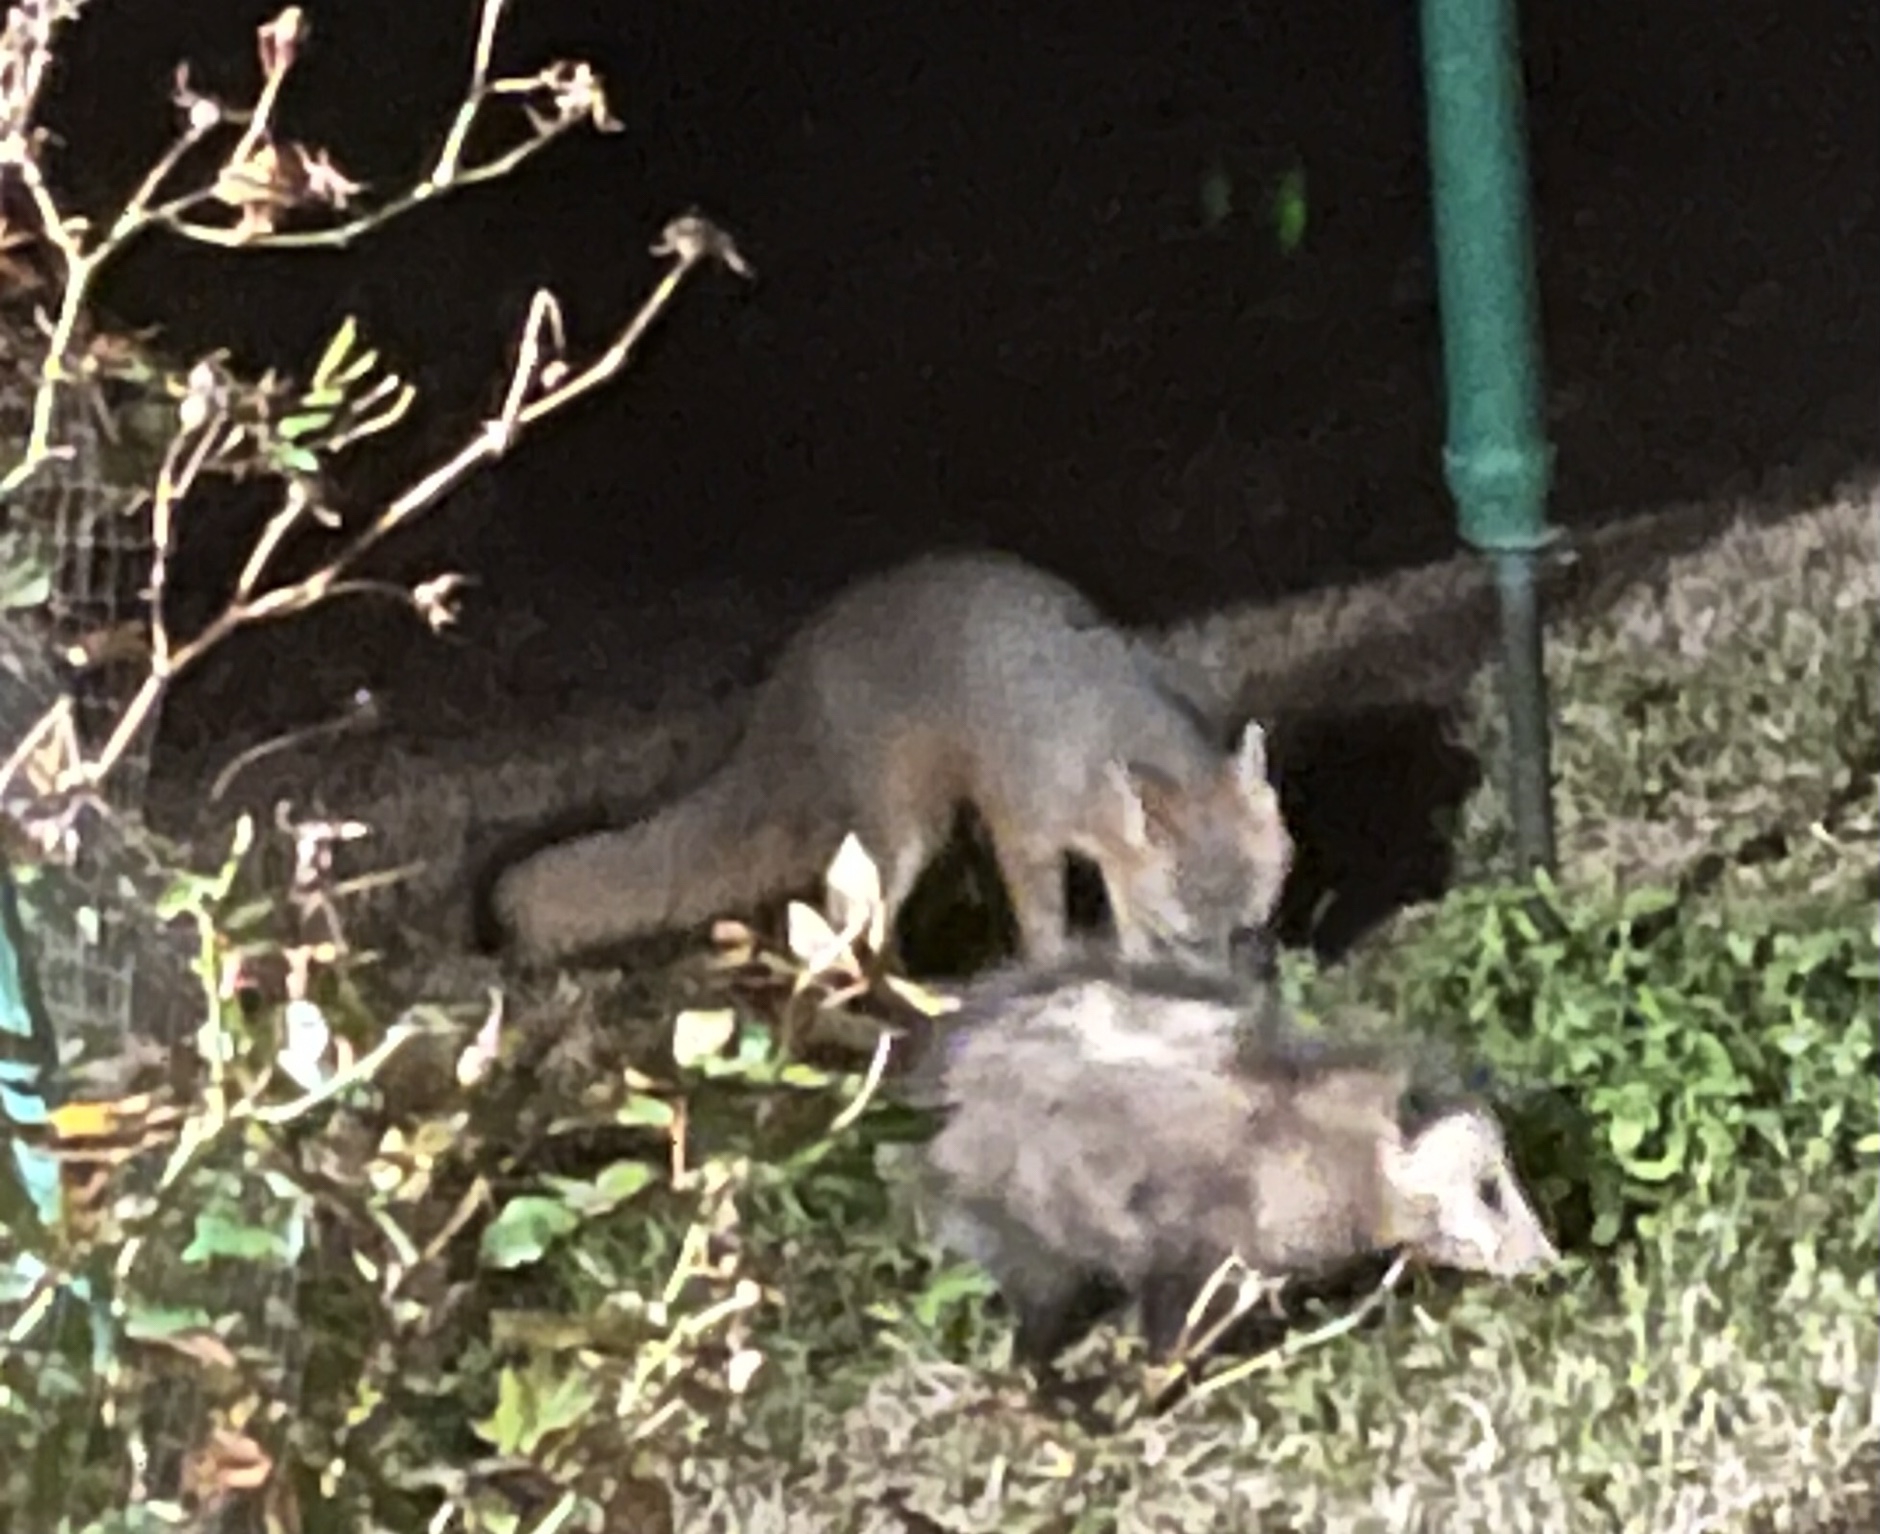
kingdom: Animalia
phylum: Chordata
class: Mammalia
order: Carnivora
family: Canidae
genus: Urocyon
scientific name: Urocyon cinereoargenteus
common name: Gray fox
